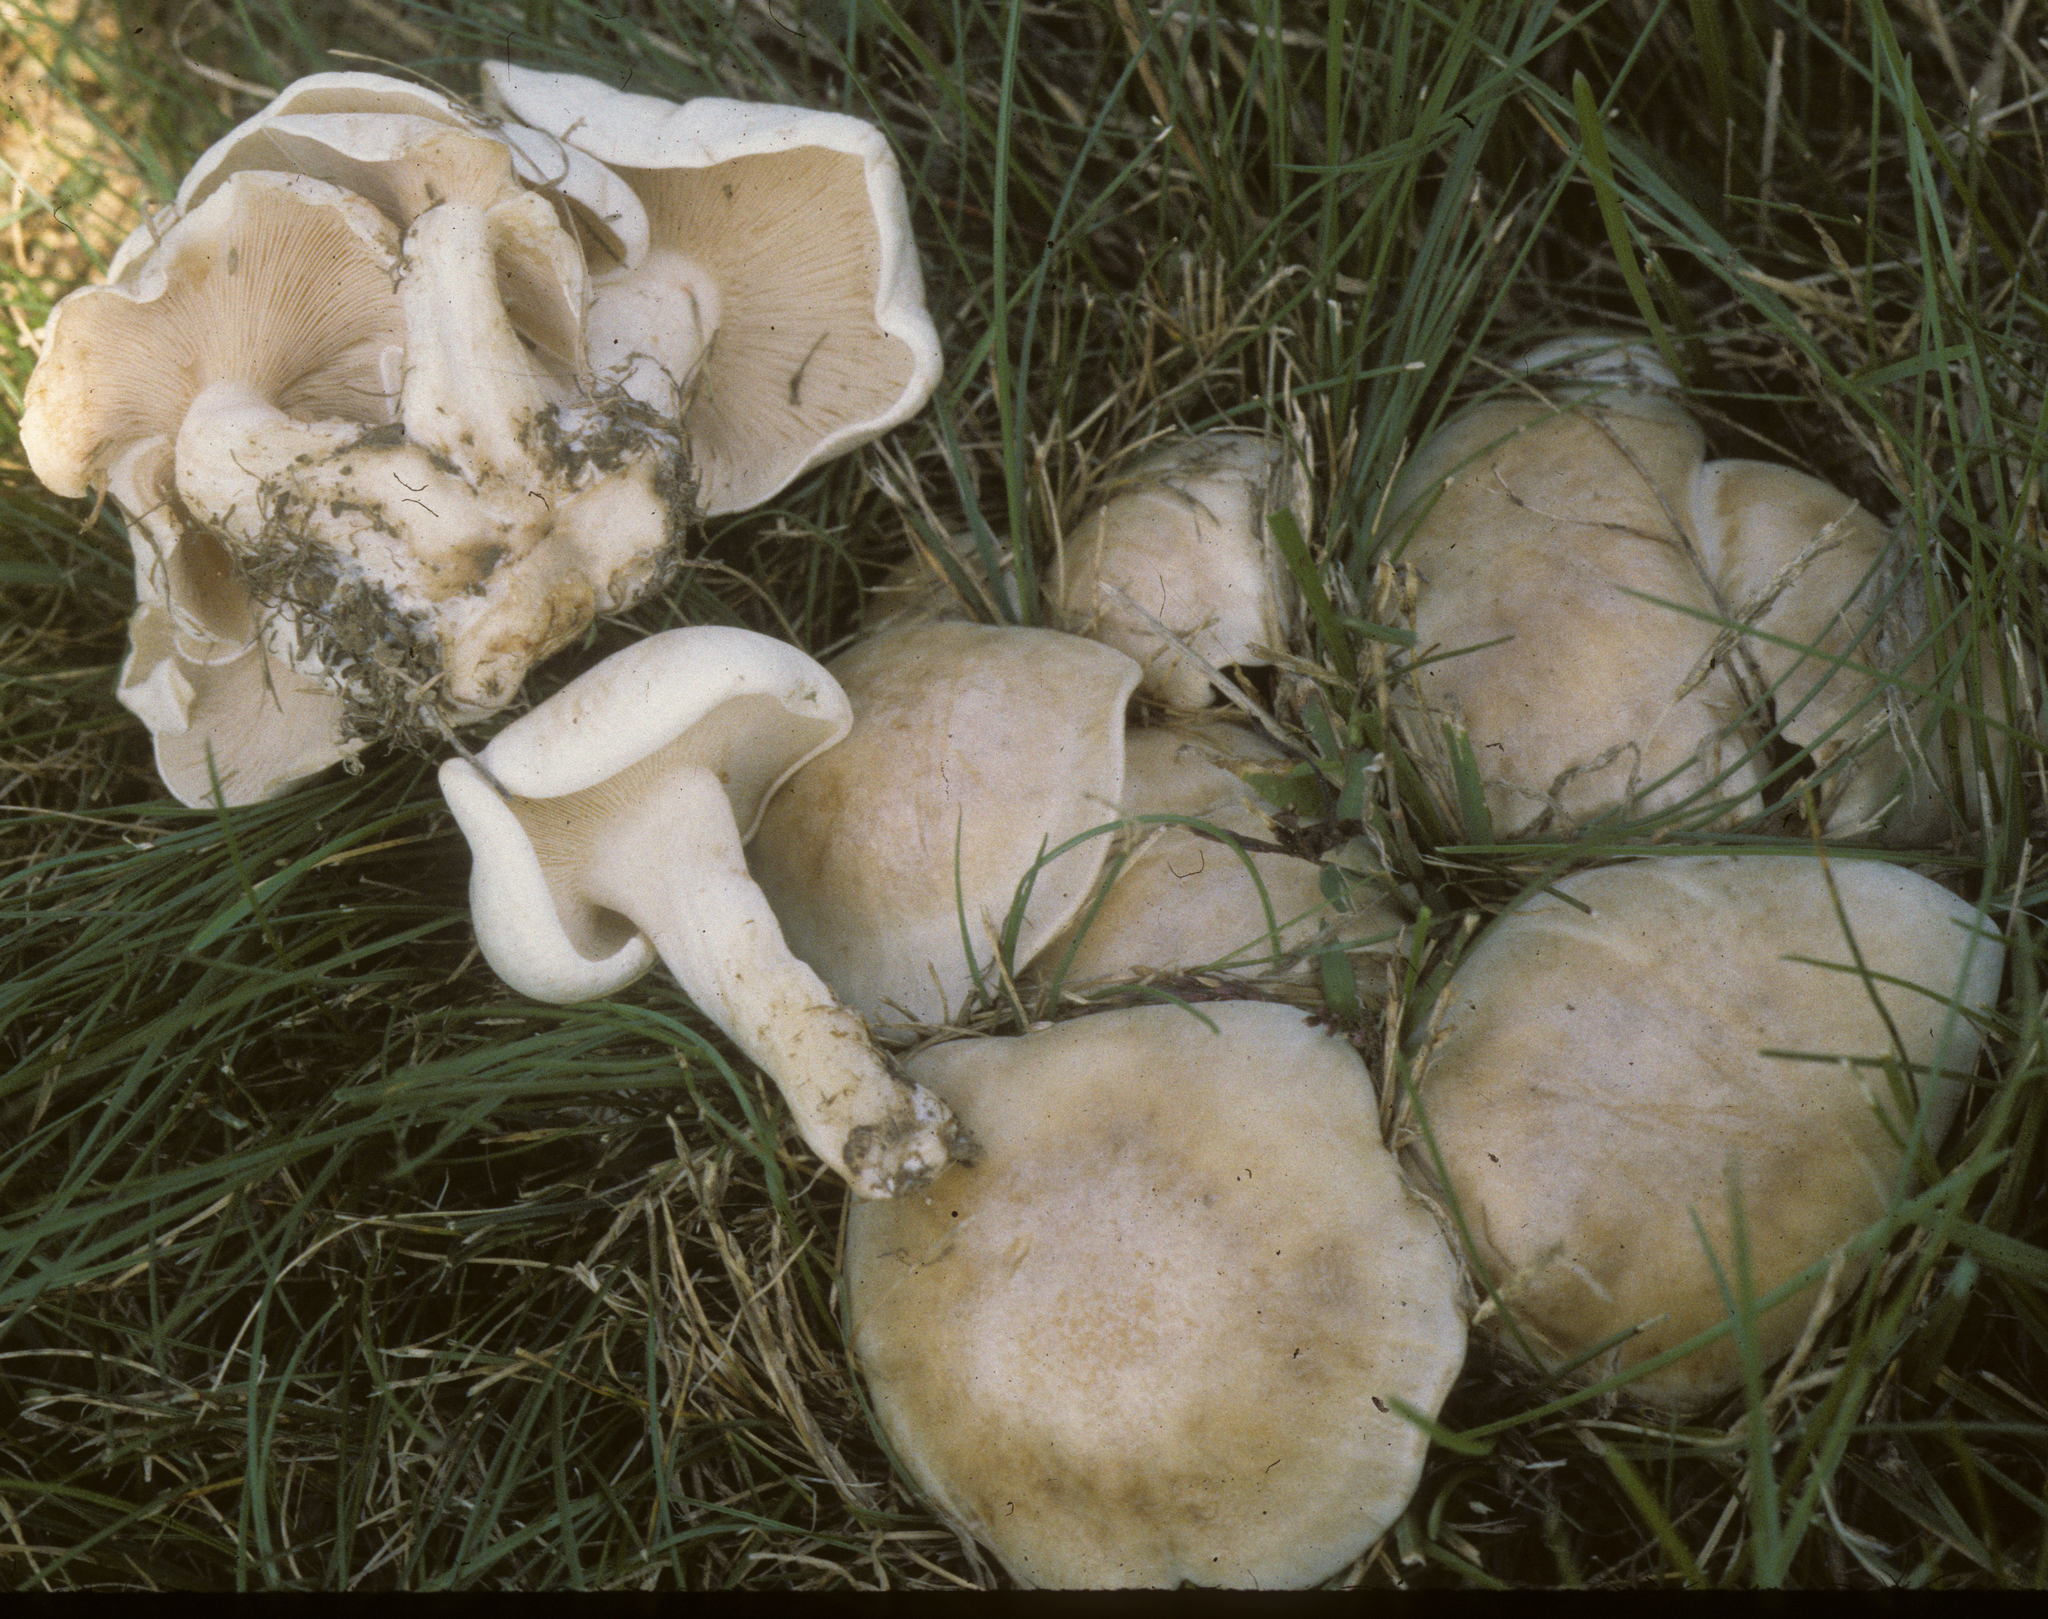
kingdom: Fungi
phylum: Basidiomycota
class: Agaricomycetes
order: Agaricales
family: Tricholomataceae
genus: Collybia
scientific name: Collybia
